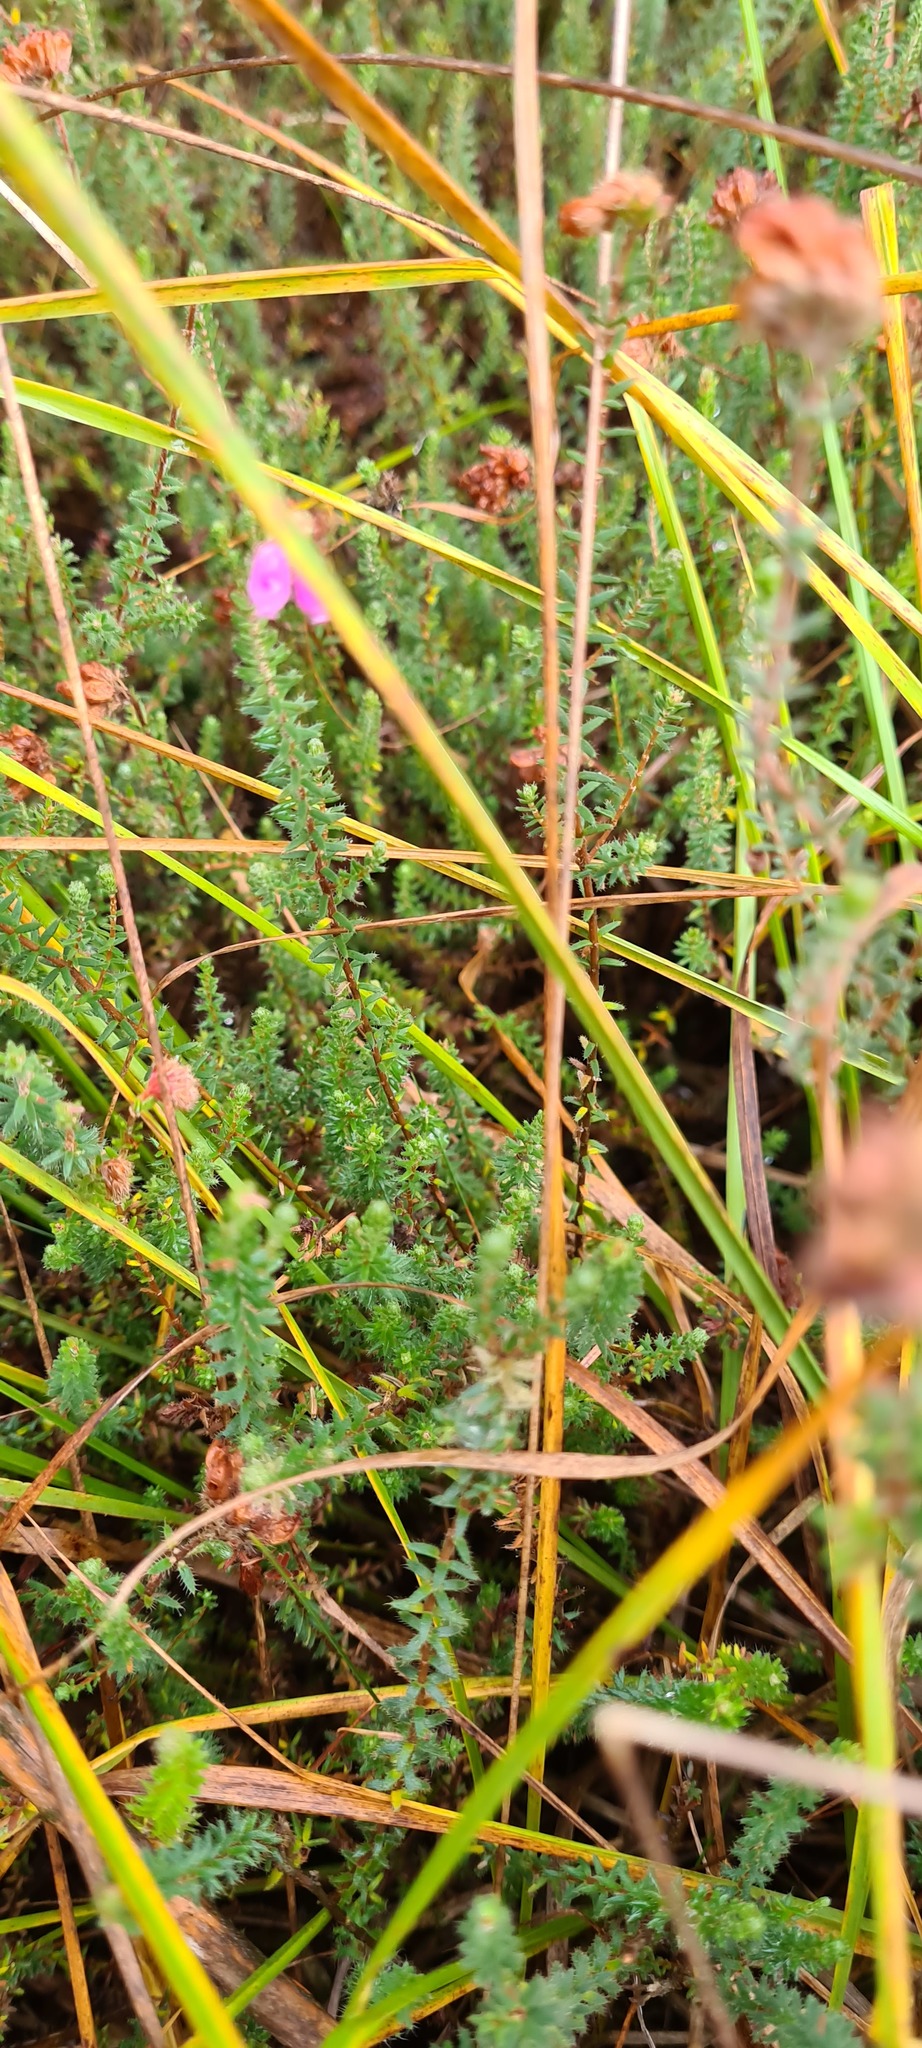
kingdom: Plantae
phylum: Tracheophyta
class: Magnoliopsida
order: Ericales
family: Ericaceae
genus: Erica
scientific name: Erica tetralix
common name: Cross-leaved heath
